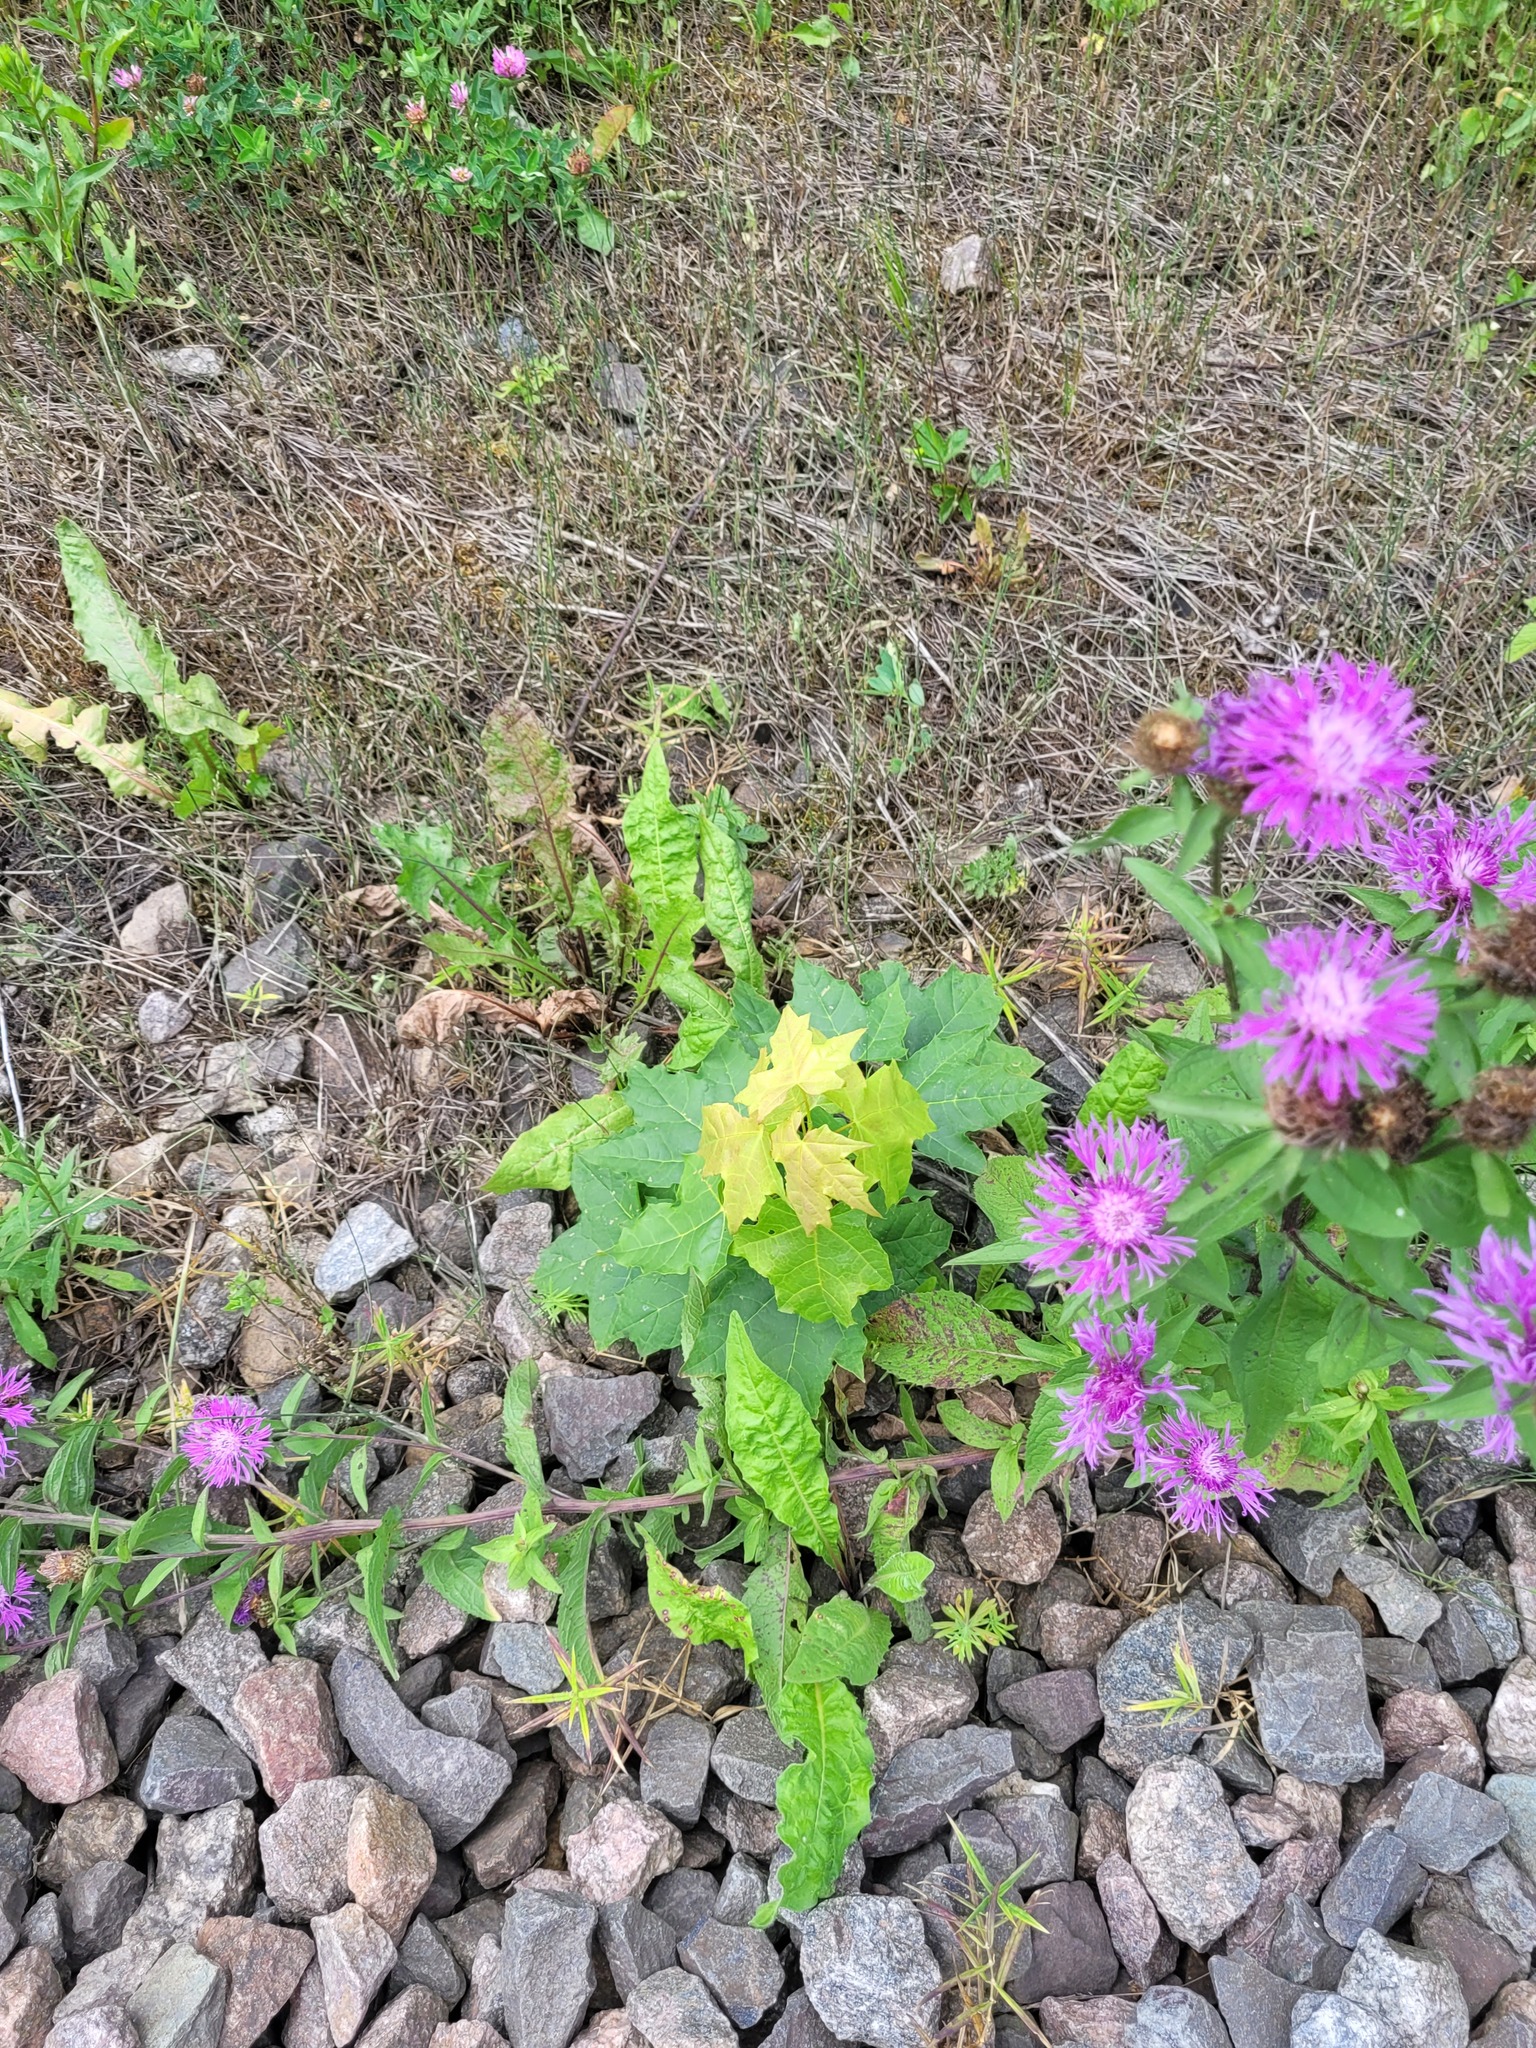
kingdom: Plantae
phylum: Tracheophyta
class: Magnoliopsida
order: Sapindales
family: Sapindaceae
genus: Acer
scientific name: Acer platanoides
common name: Norway maple
